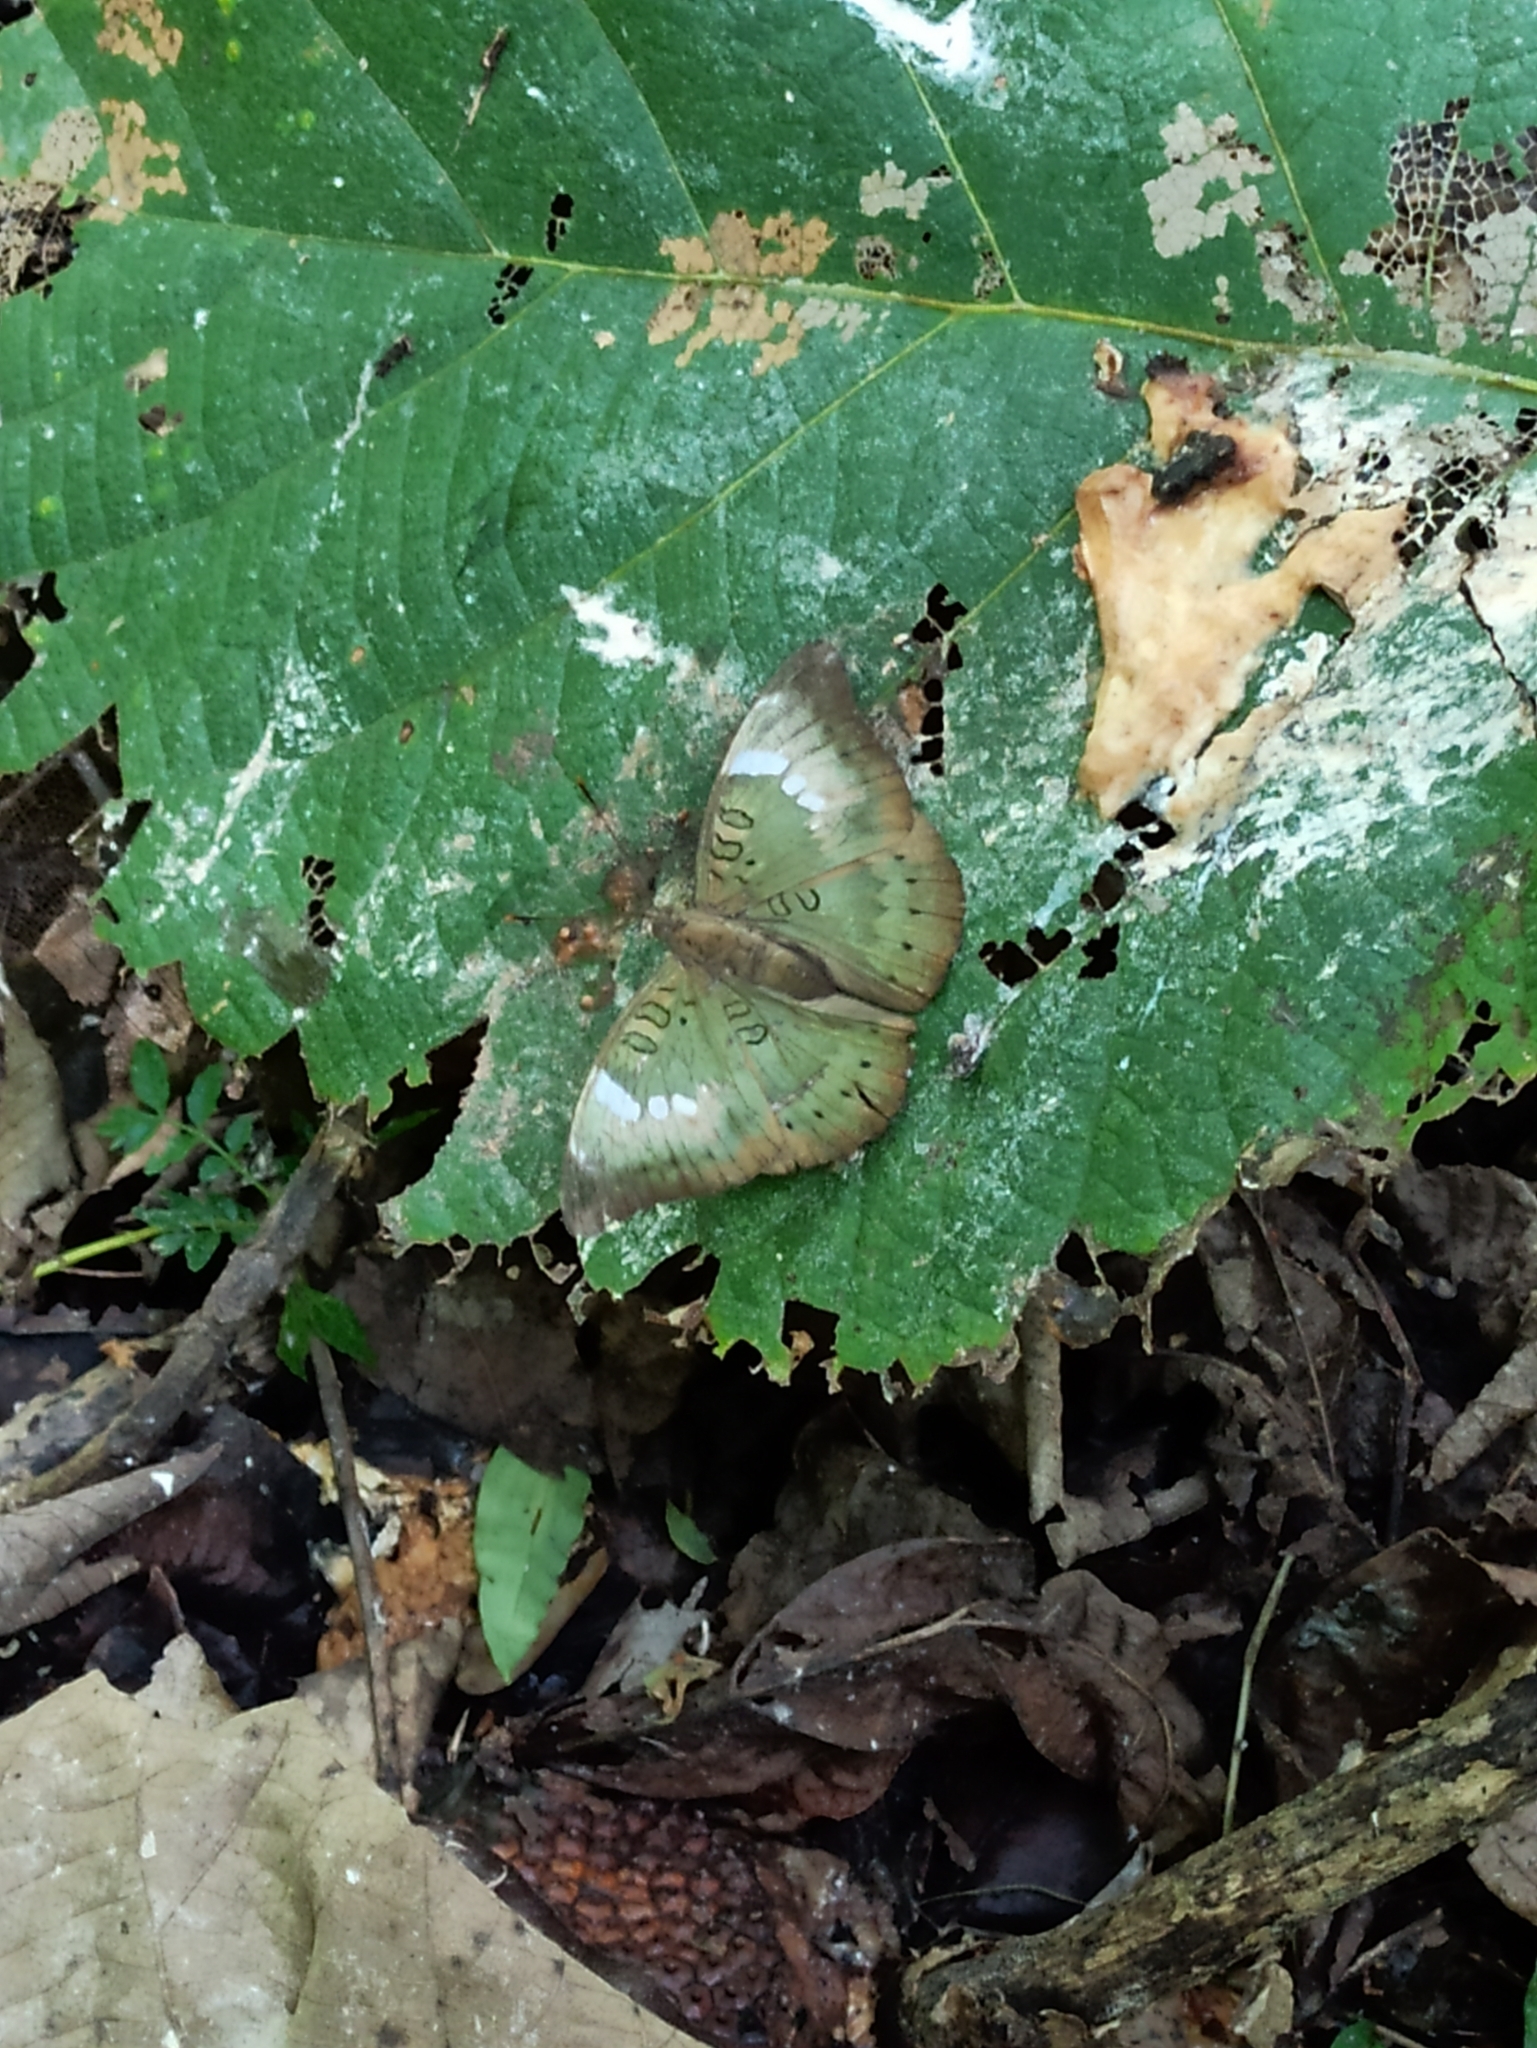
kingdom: Animalia
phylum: Arthropoda
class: Insecta
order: Lepidoptera
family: Nymphalidae
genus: Euthalia
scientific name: Euthalia aconthea
